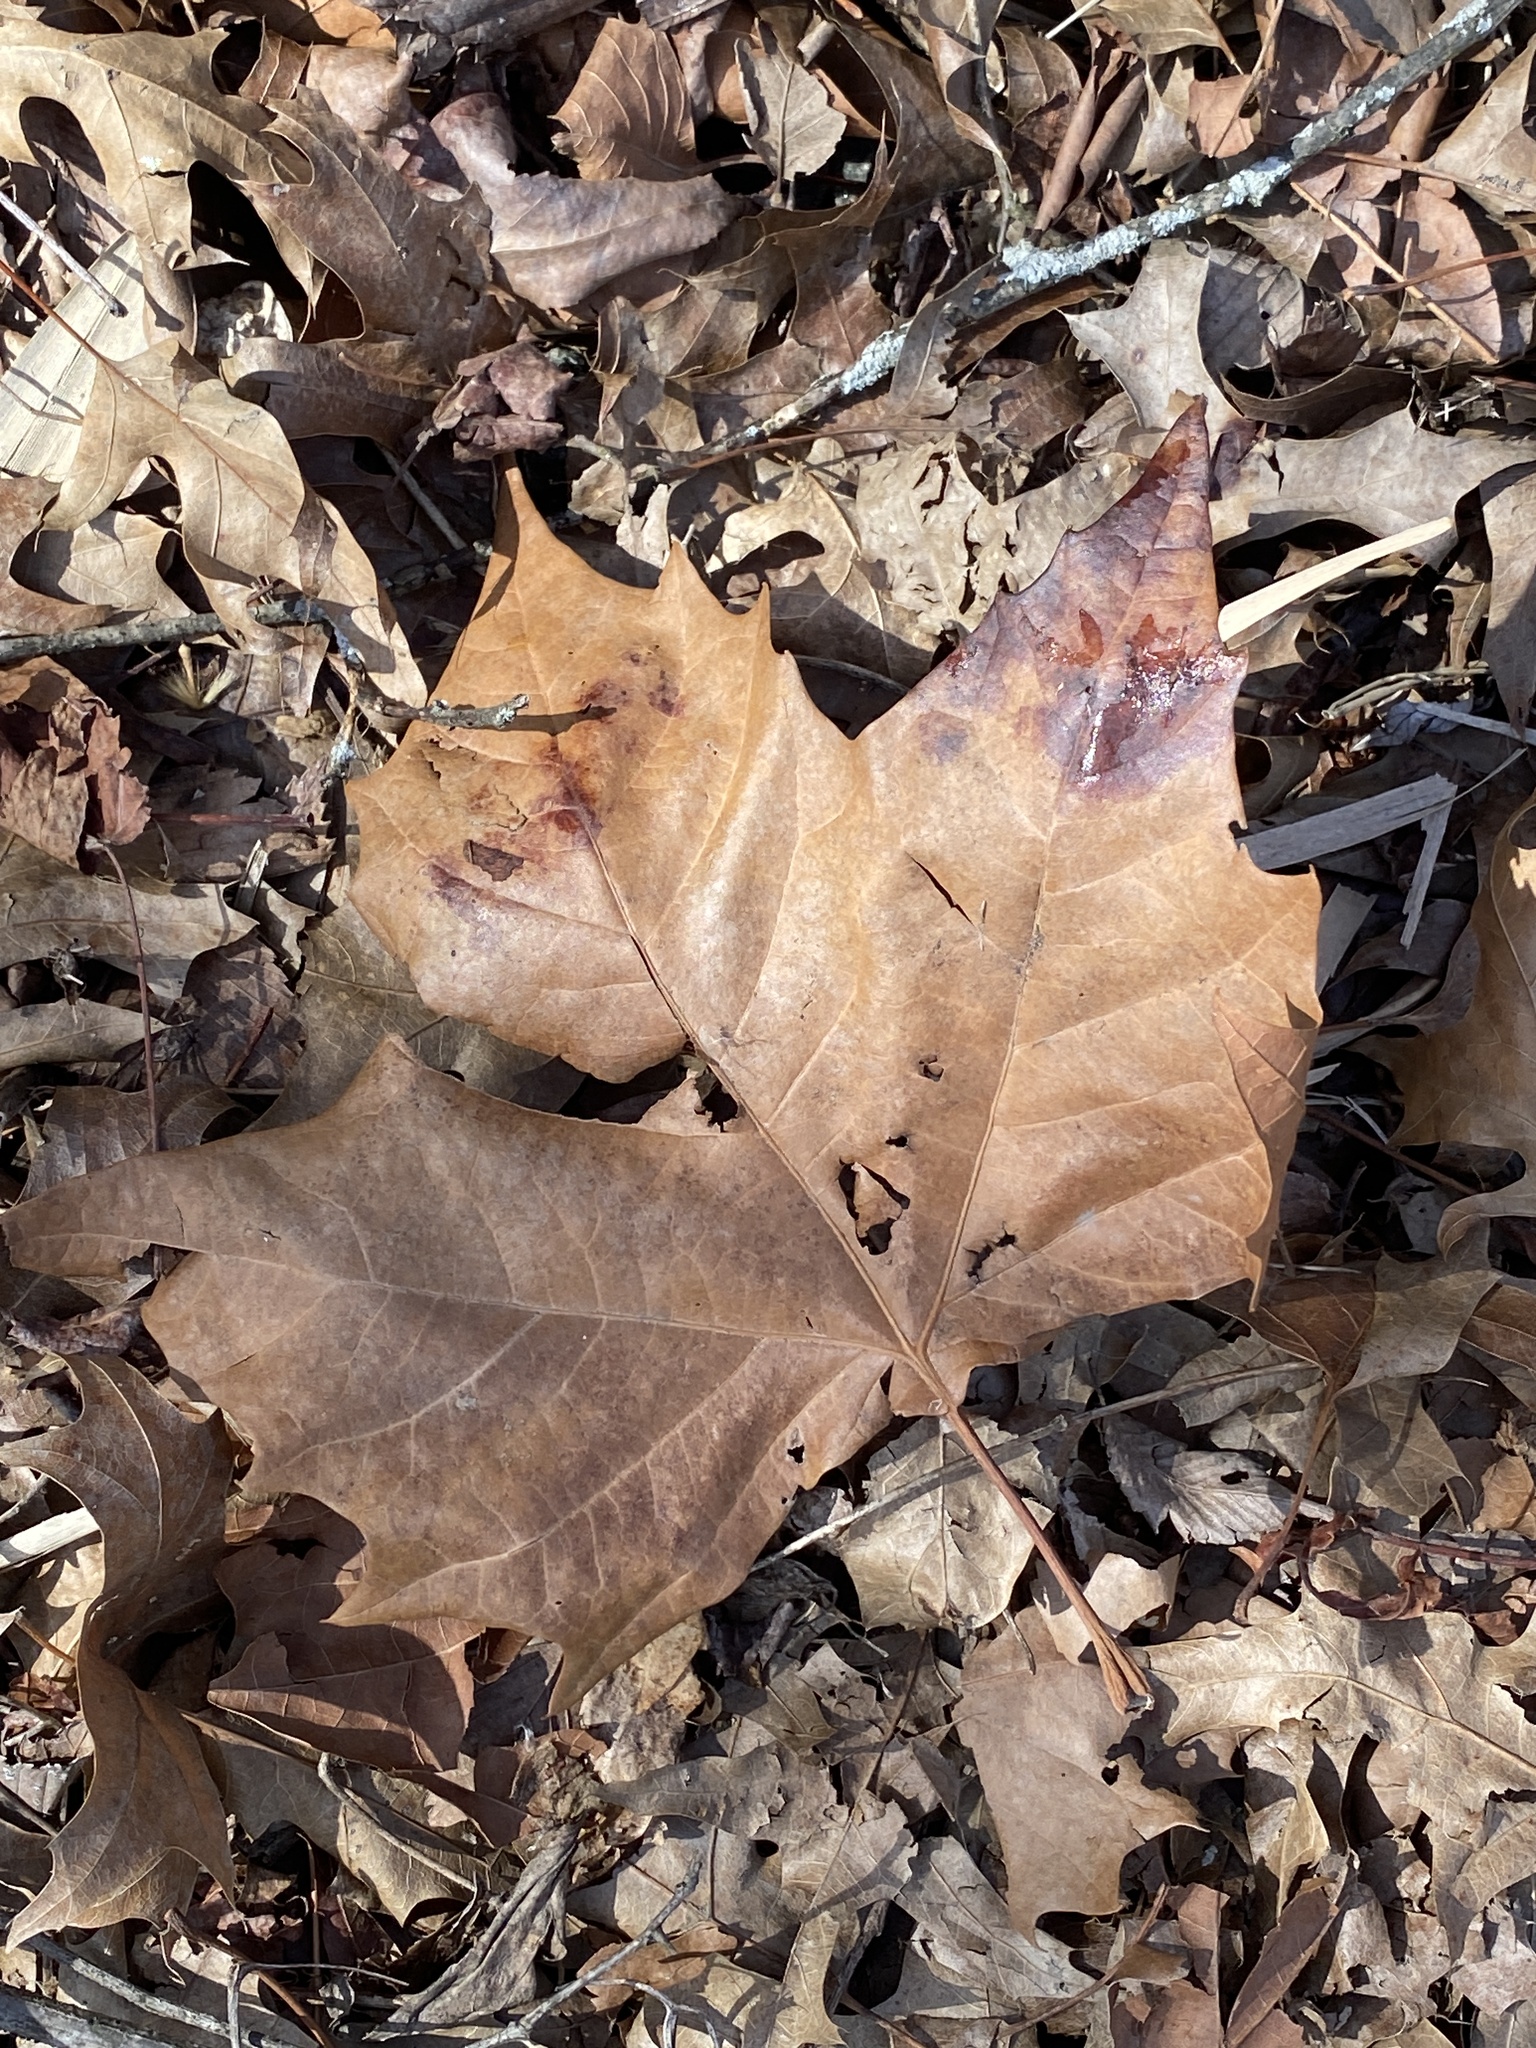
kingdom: Plantae
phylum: Tracheophyta
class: Magnoliopsida
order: Proteales
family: Platanaceae
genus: Platanus
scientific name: Platanus occidentalis
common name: American sycamore
